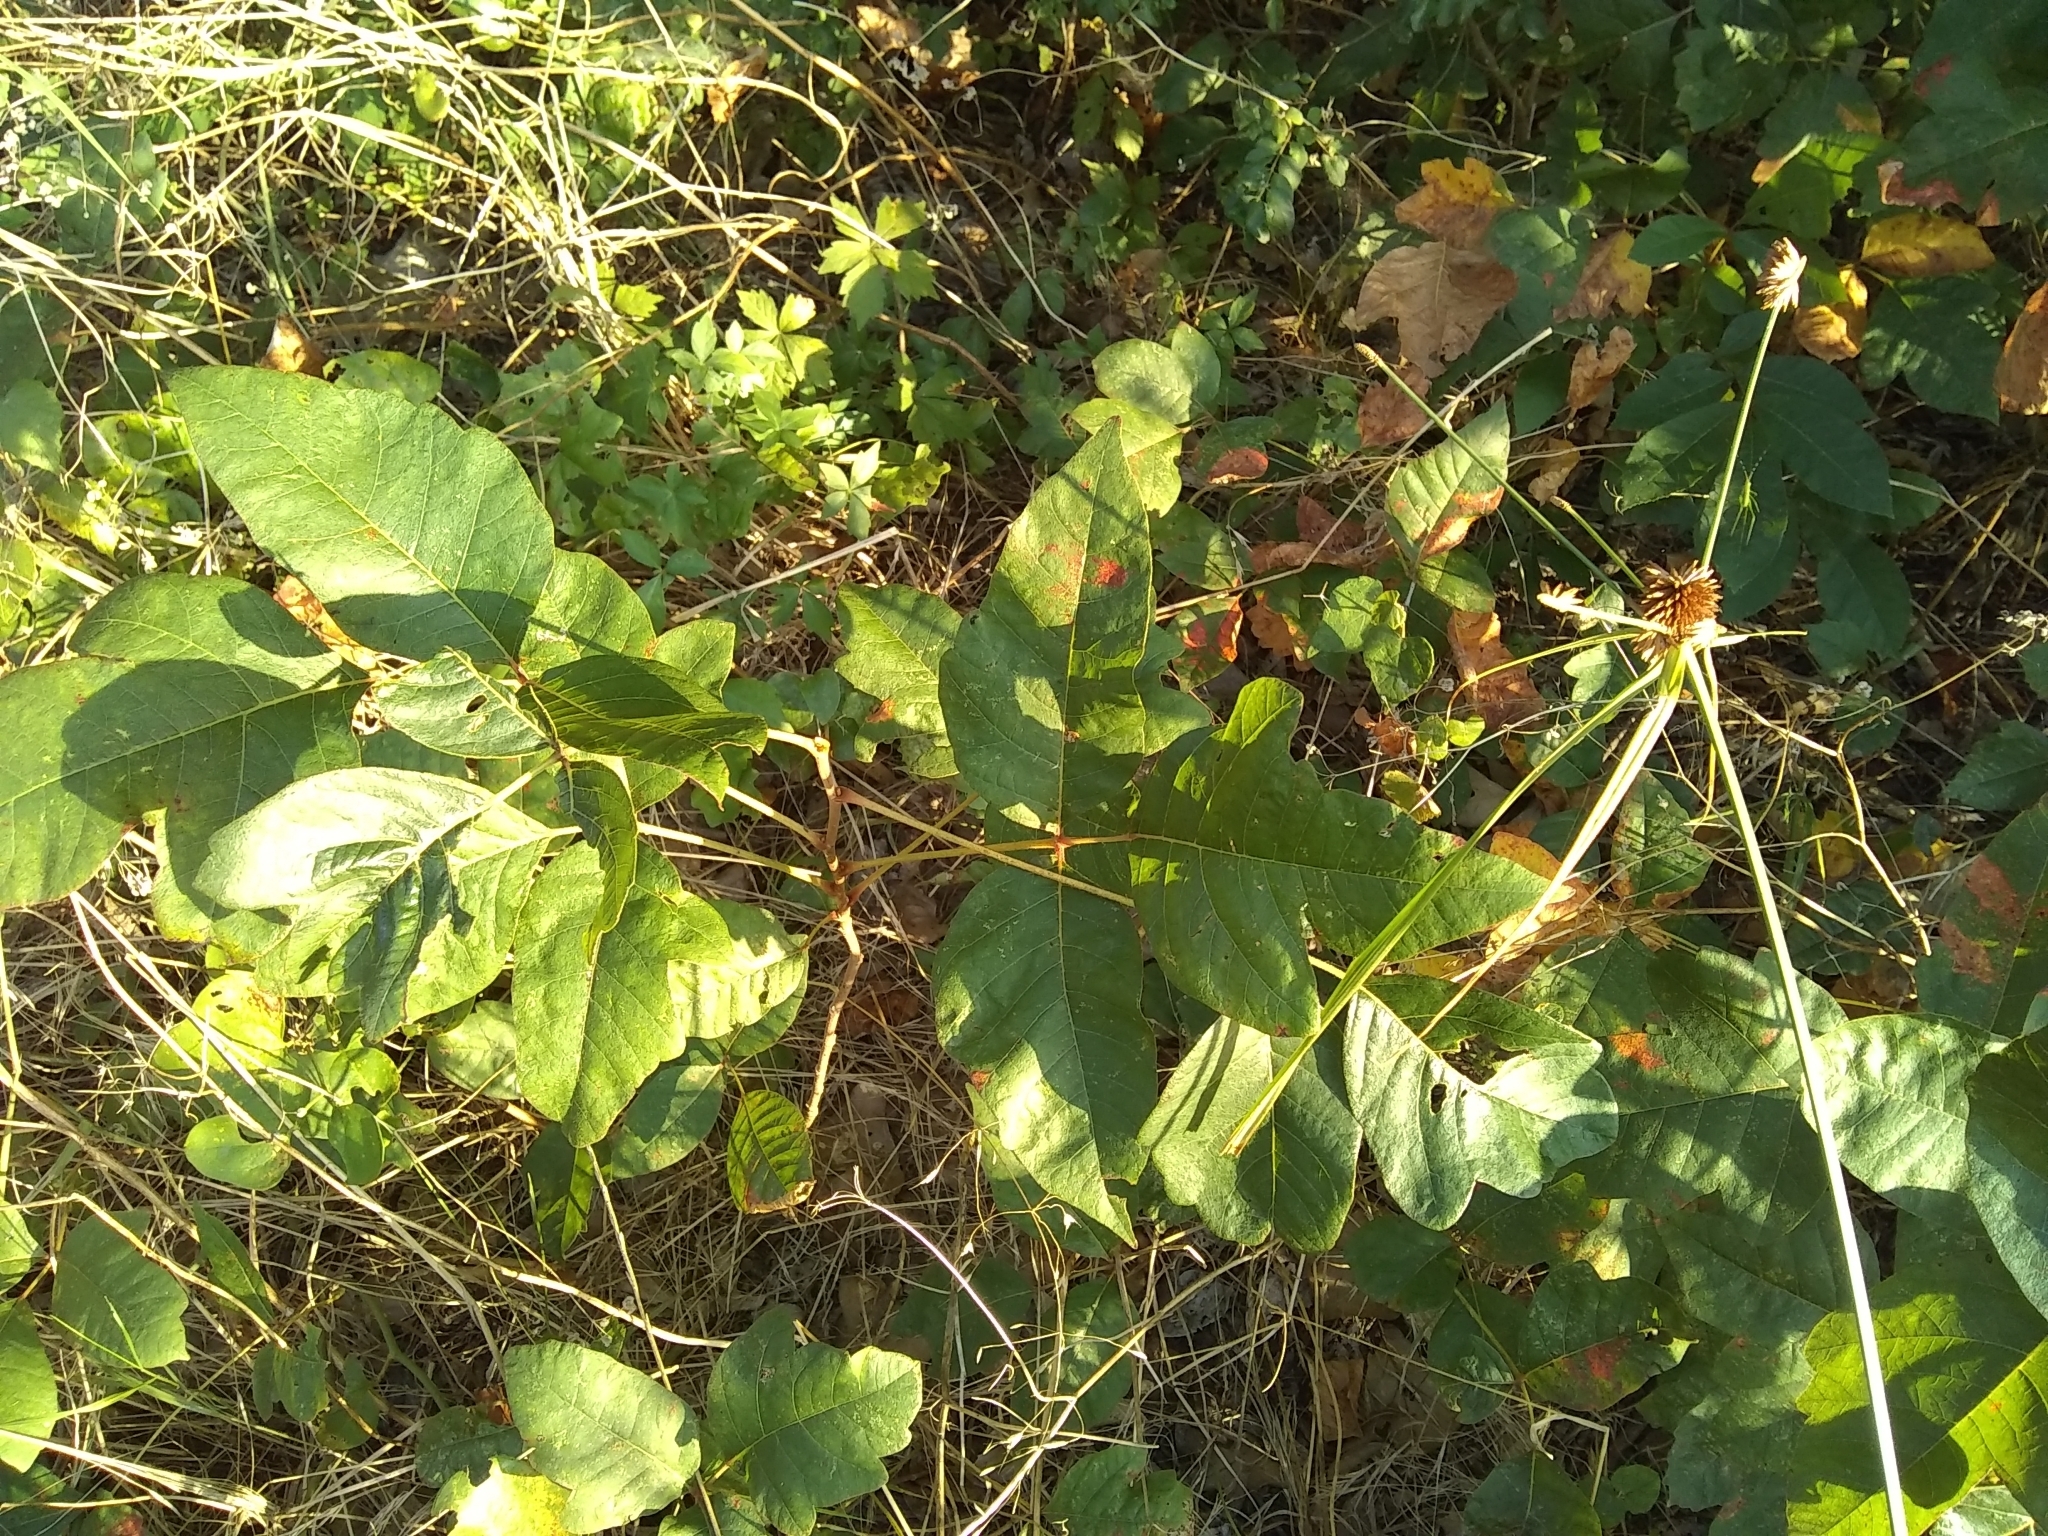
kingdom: Plantae
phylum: Tracheophyta
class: Magnoliopsida
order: Sapindales
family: Anacardiaceae
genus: Toxicodendron
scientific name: Toxicodendron radicans
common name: Poison ivy
